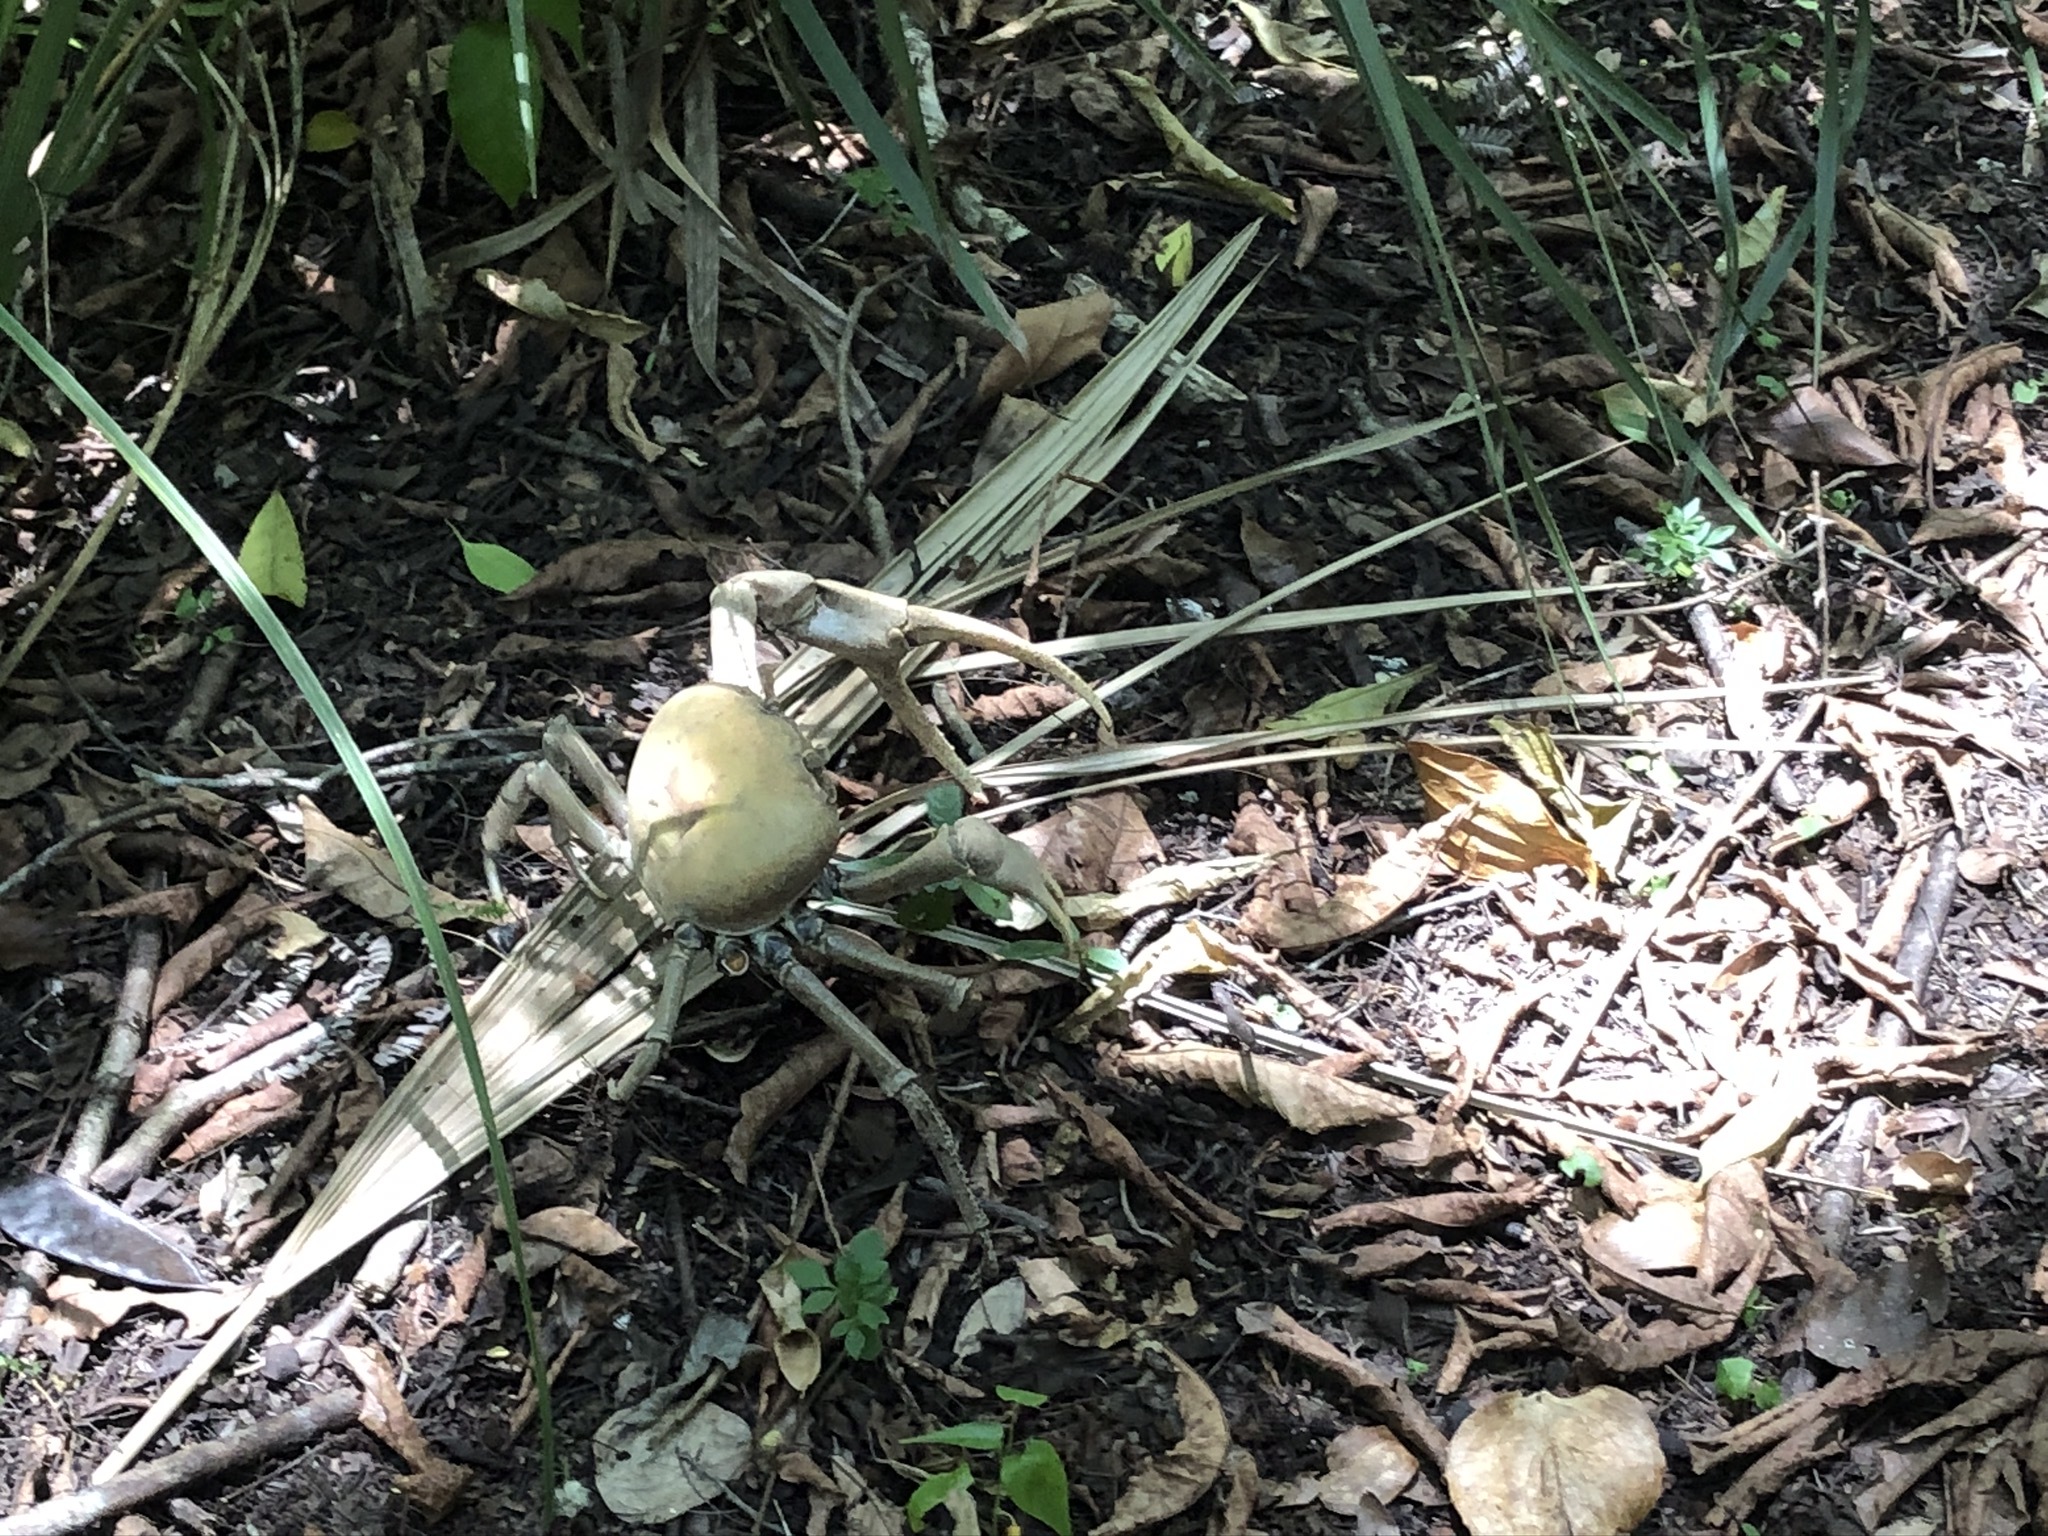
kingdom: Animalia
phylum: Arthropoda
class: Malacostraca
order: Decapoda
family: Gecarcinidae
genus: Cardisoma
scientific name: Cardisoma guanhumi
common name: Great land crab
